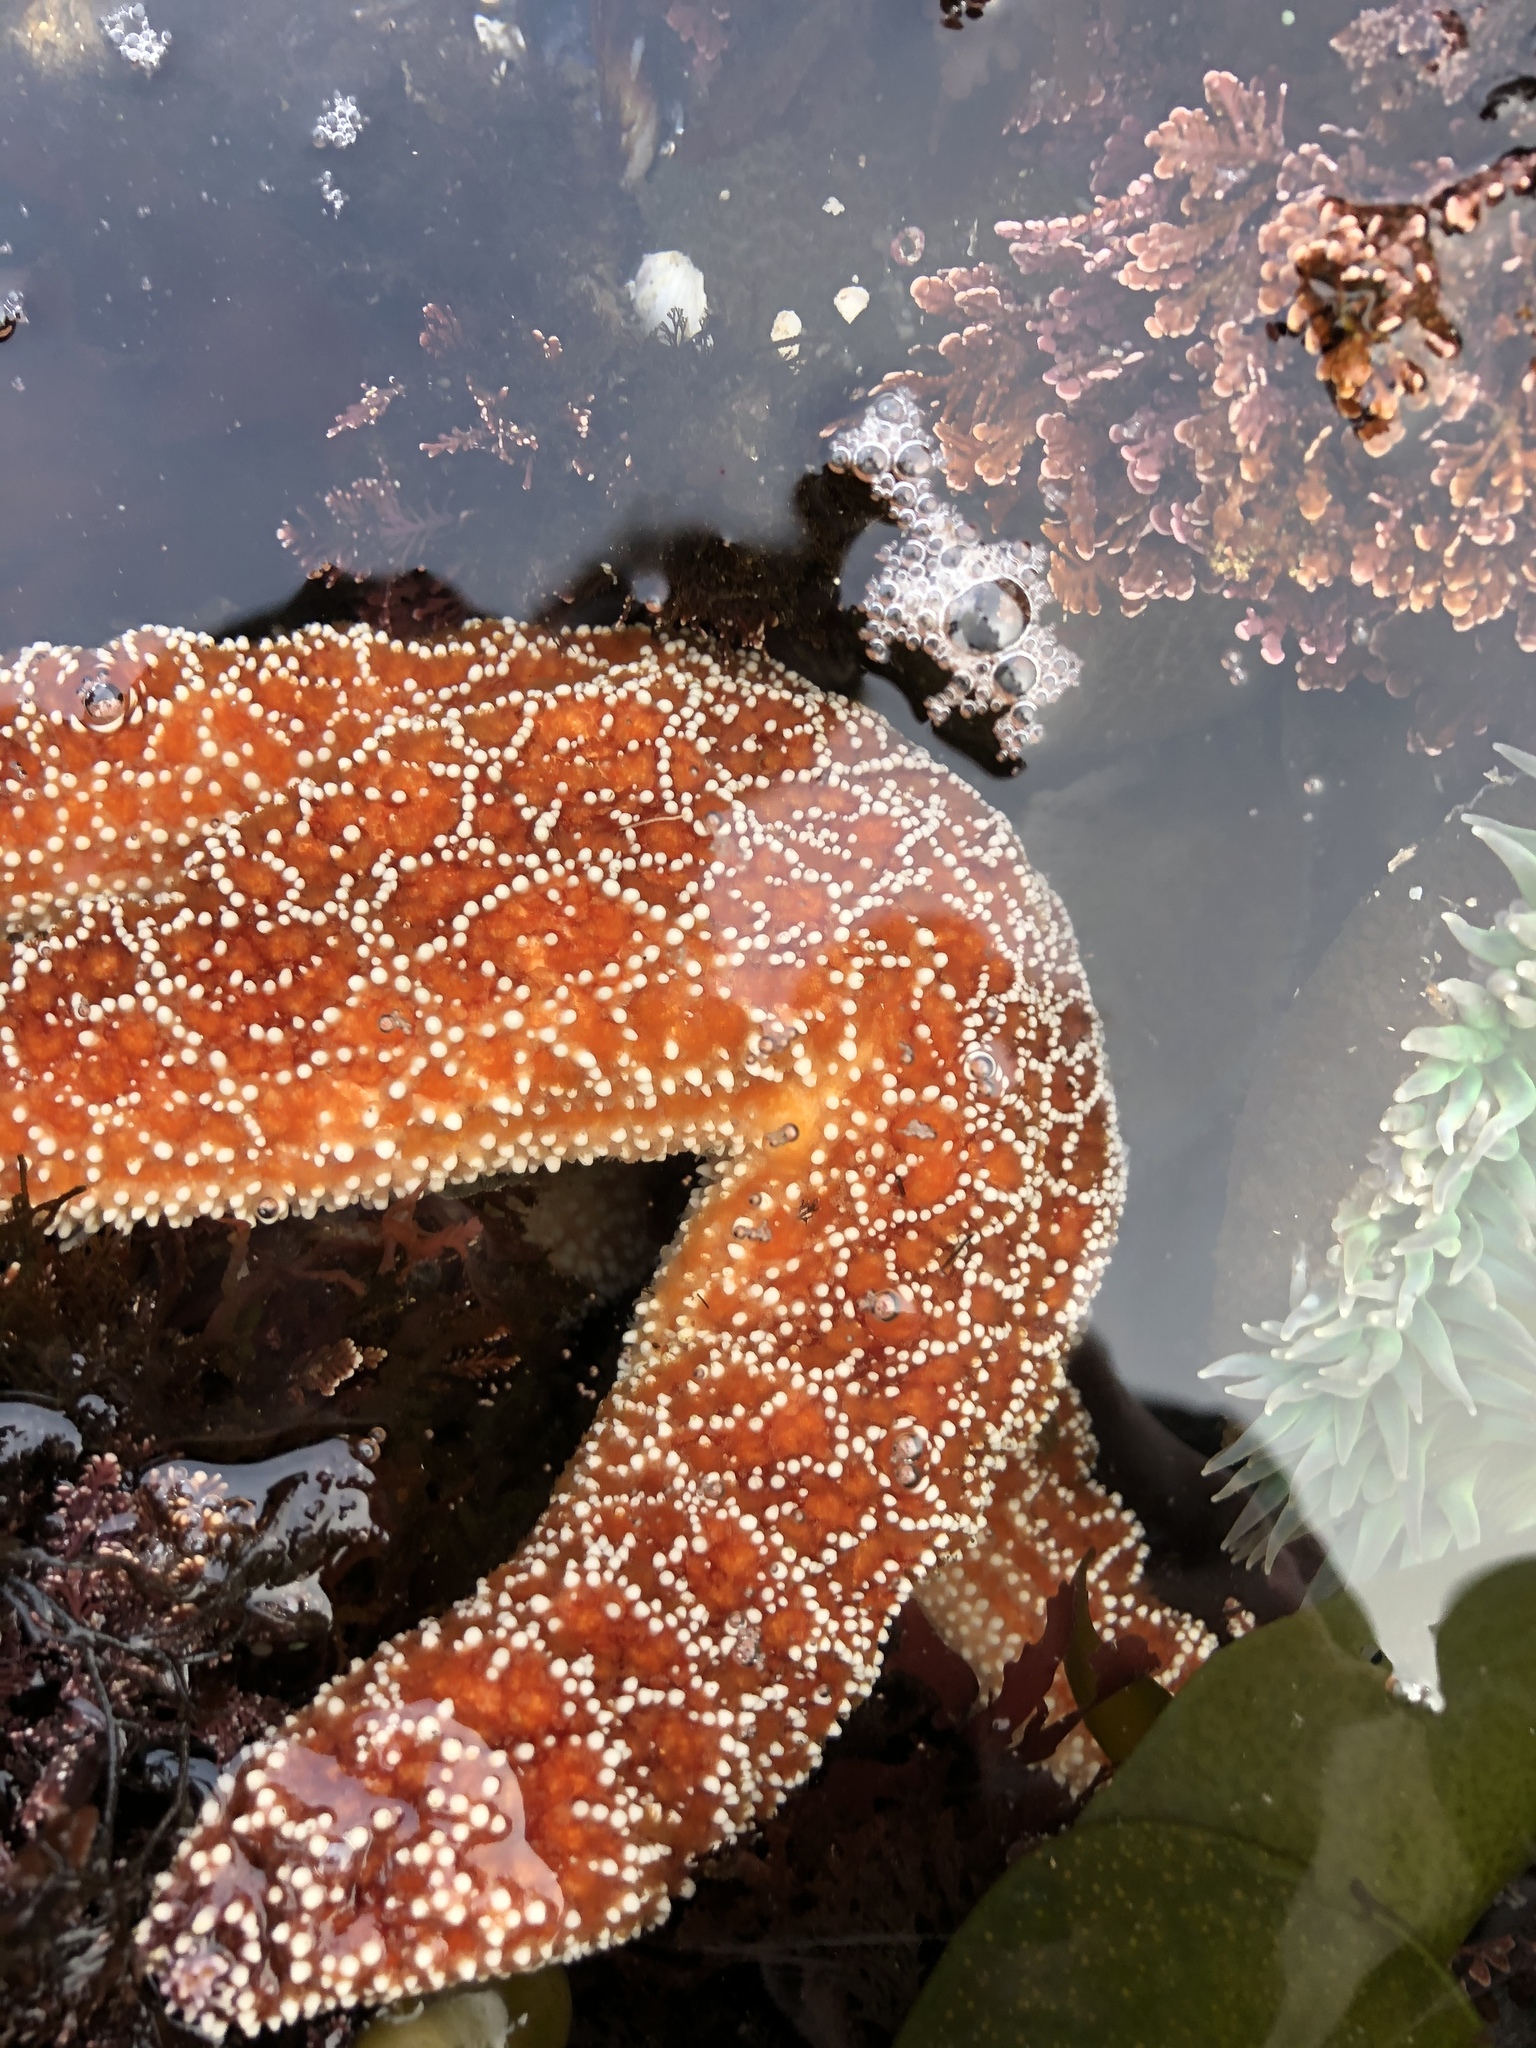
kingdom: Animalia
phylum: Echinodermata
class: Asteroidea
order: Forcipulatida
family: Asteriidae
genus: Pisaster
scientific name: Pisaster ochraceus
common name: Ochre stars
